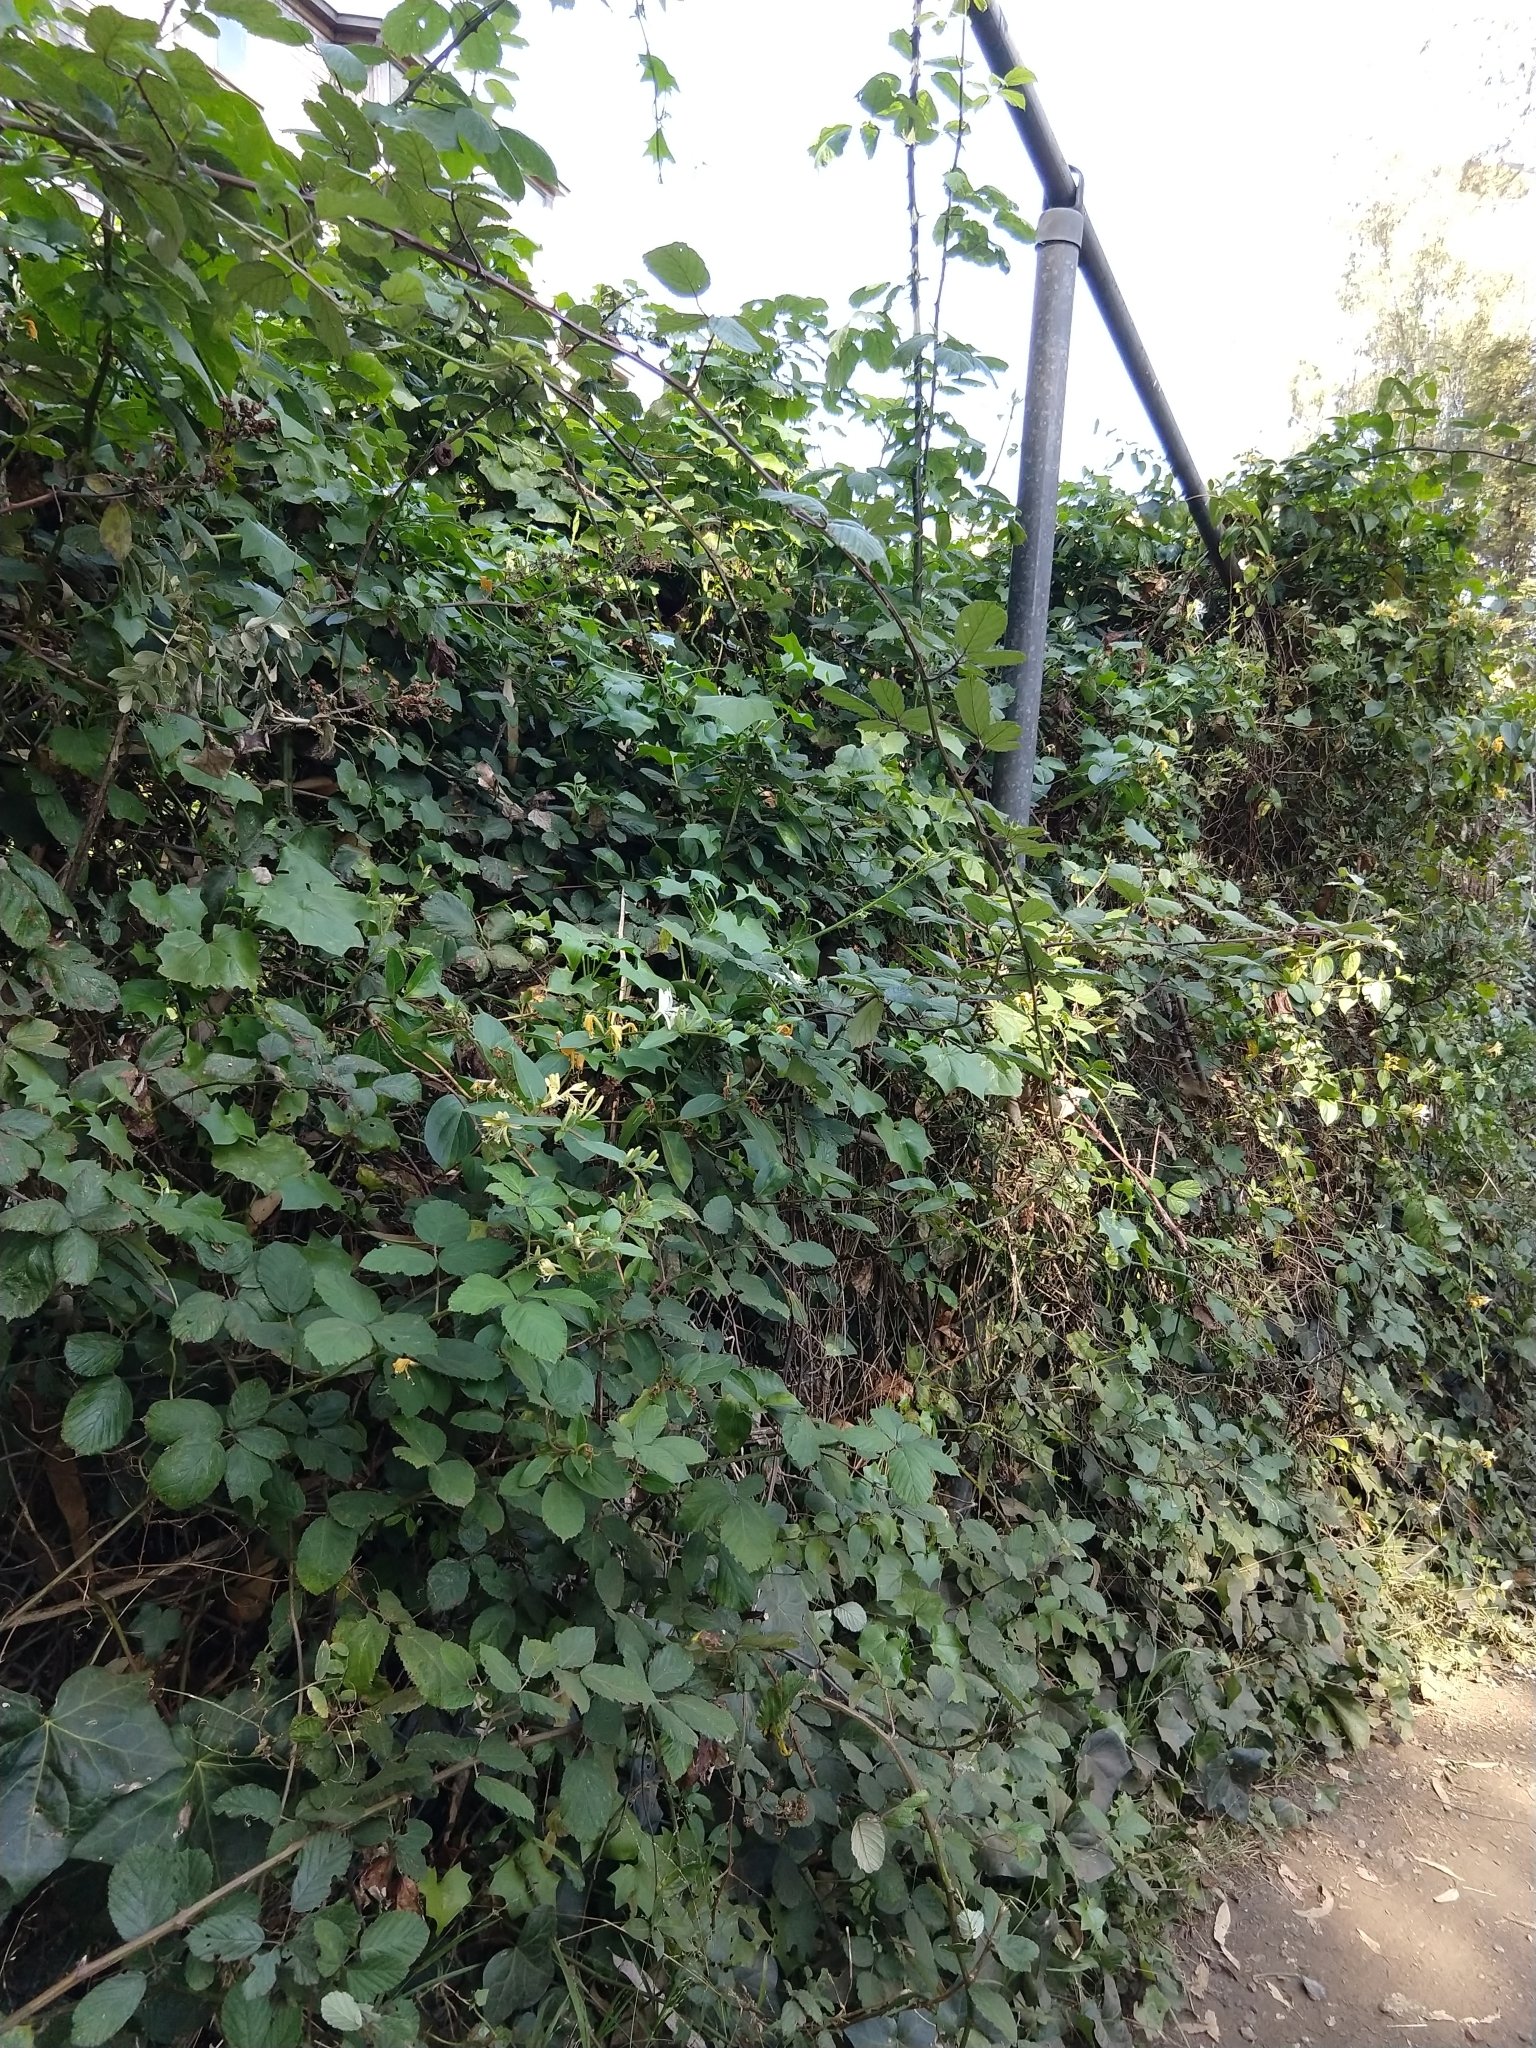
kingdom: Plantae
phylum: Tracheophyta
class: Magnoliopsida
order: Dipsacales
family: Caprifoliaceae
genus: Lonicera
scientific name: Lonicera japonica
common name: Japanese honeysuckle
